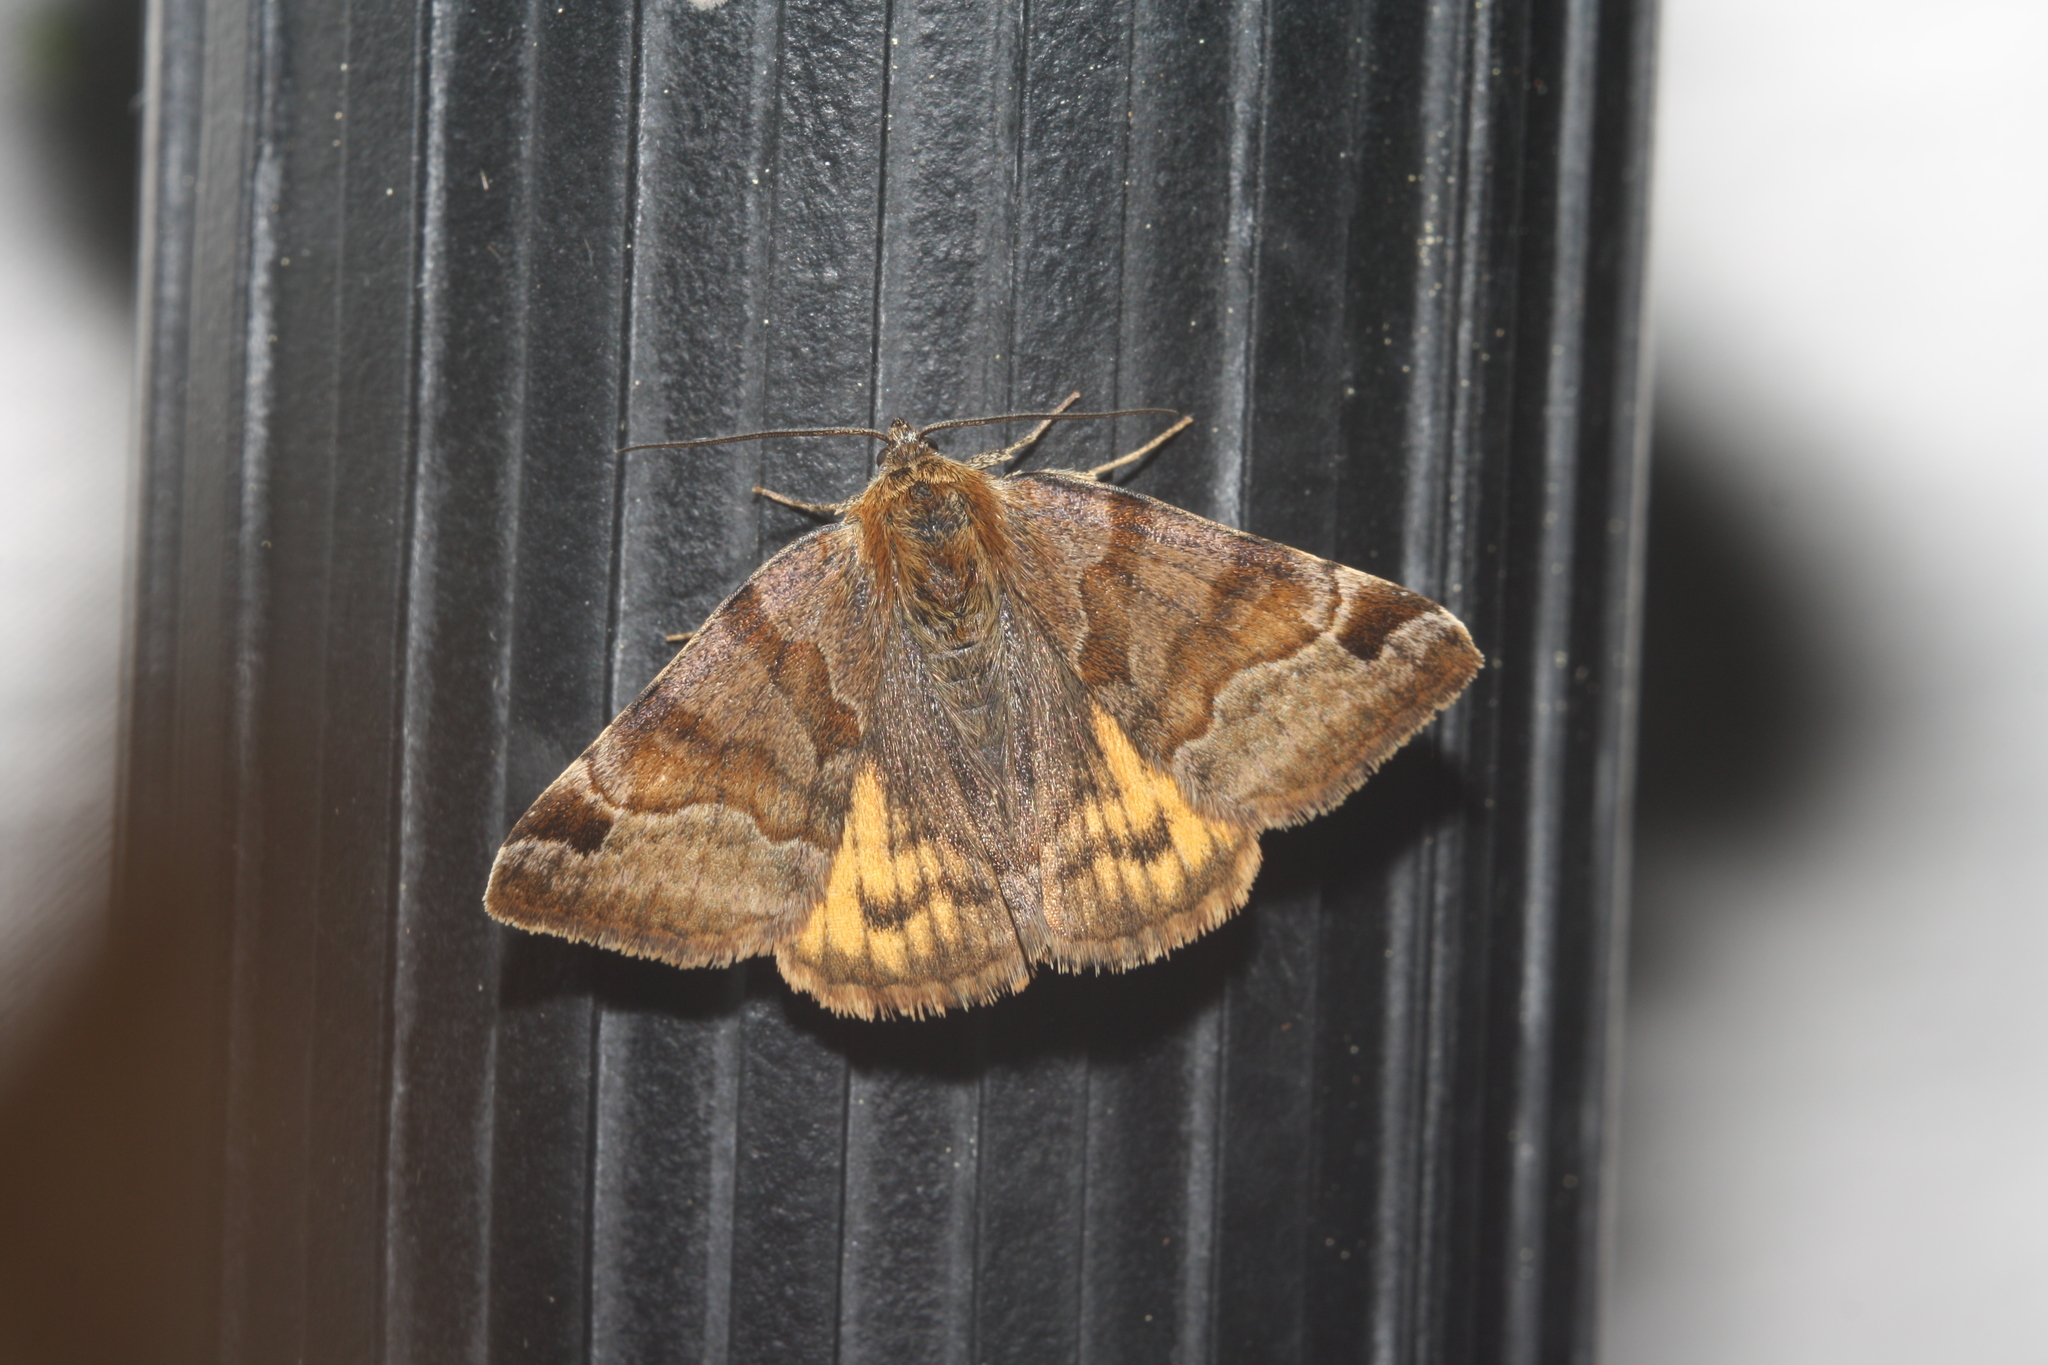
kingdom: Animalia
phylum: Arthropoda
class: Insecta
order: Lepidoptera
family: Erebidae
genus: Euclidia
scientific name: Euclidia glyphica
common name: Burnet companion
